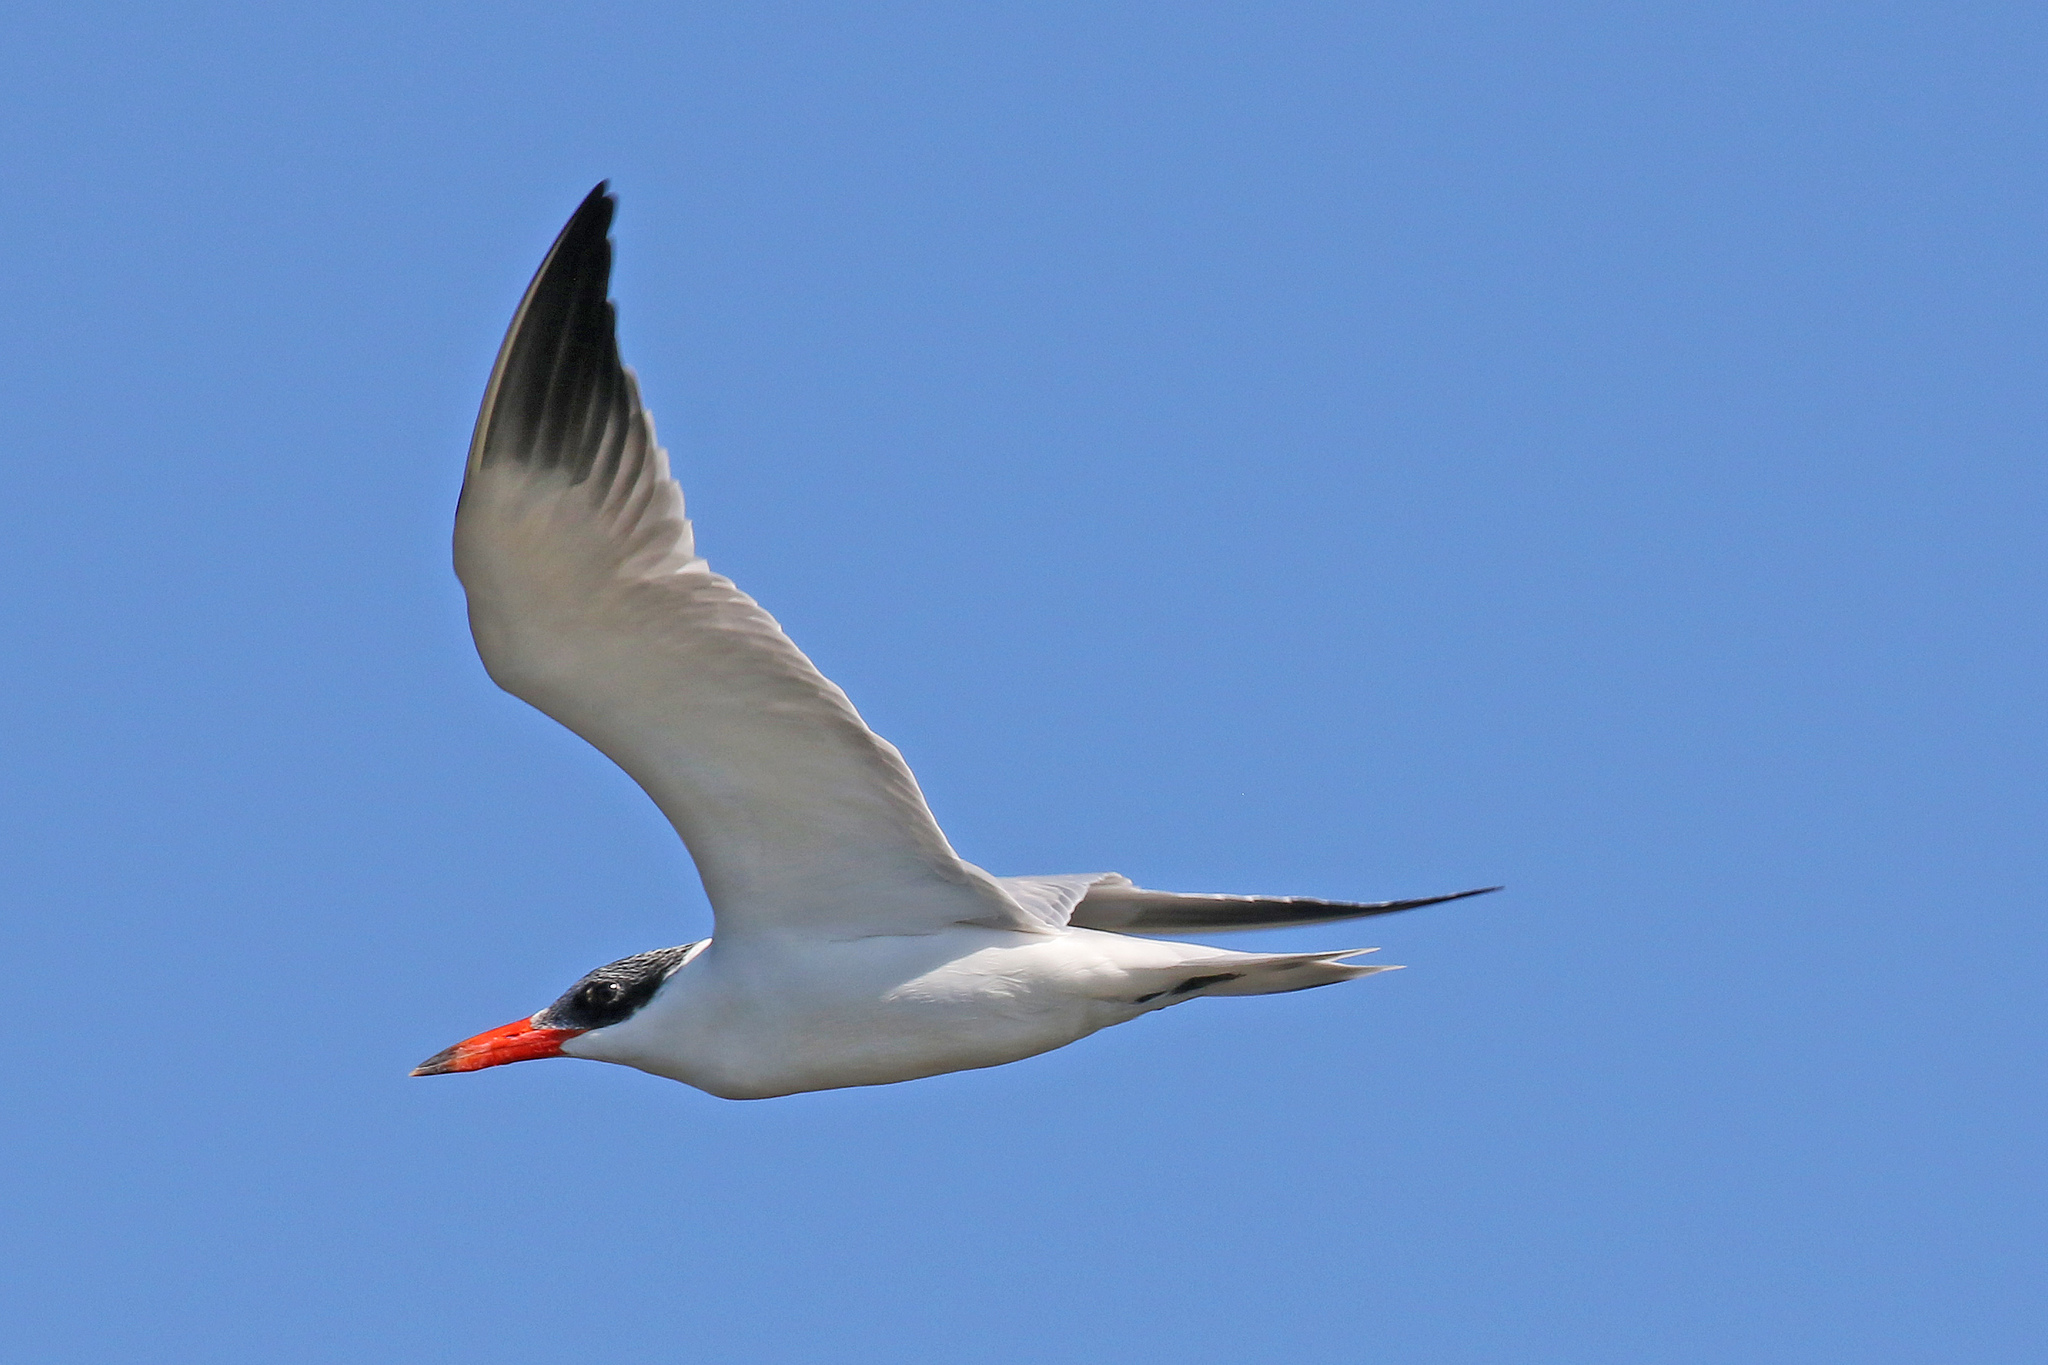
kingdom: Animalia
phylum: Chordata
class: Aves
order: Charadriiformes
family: Laridae
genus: Hydroprogne
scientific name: Hydroprogne caspia
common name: Caspian tern
